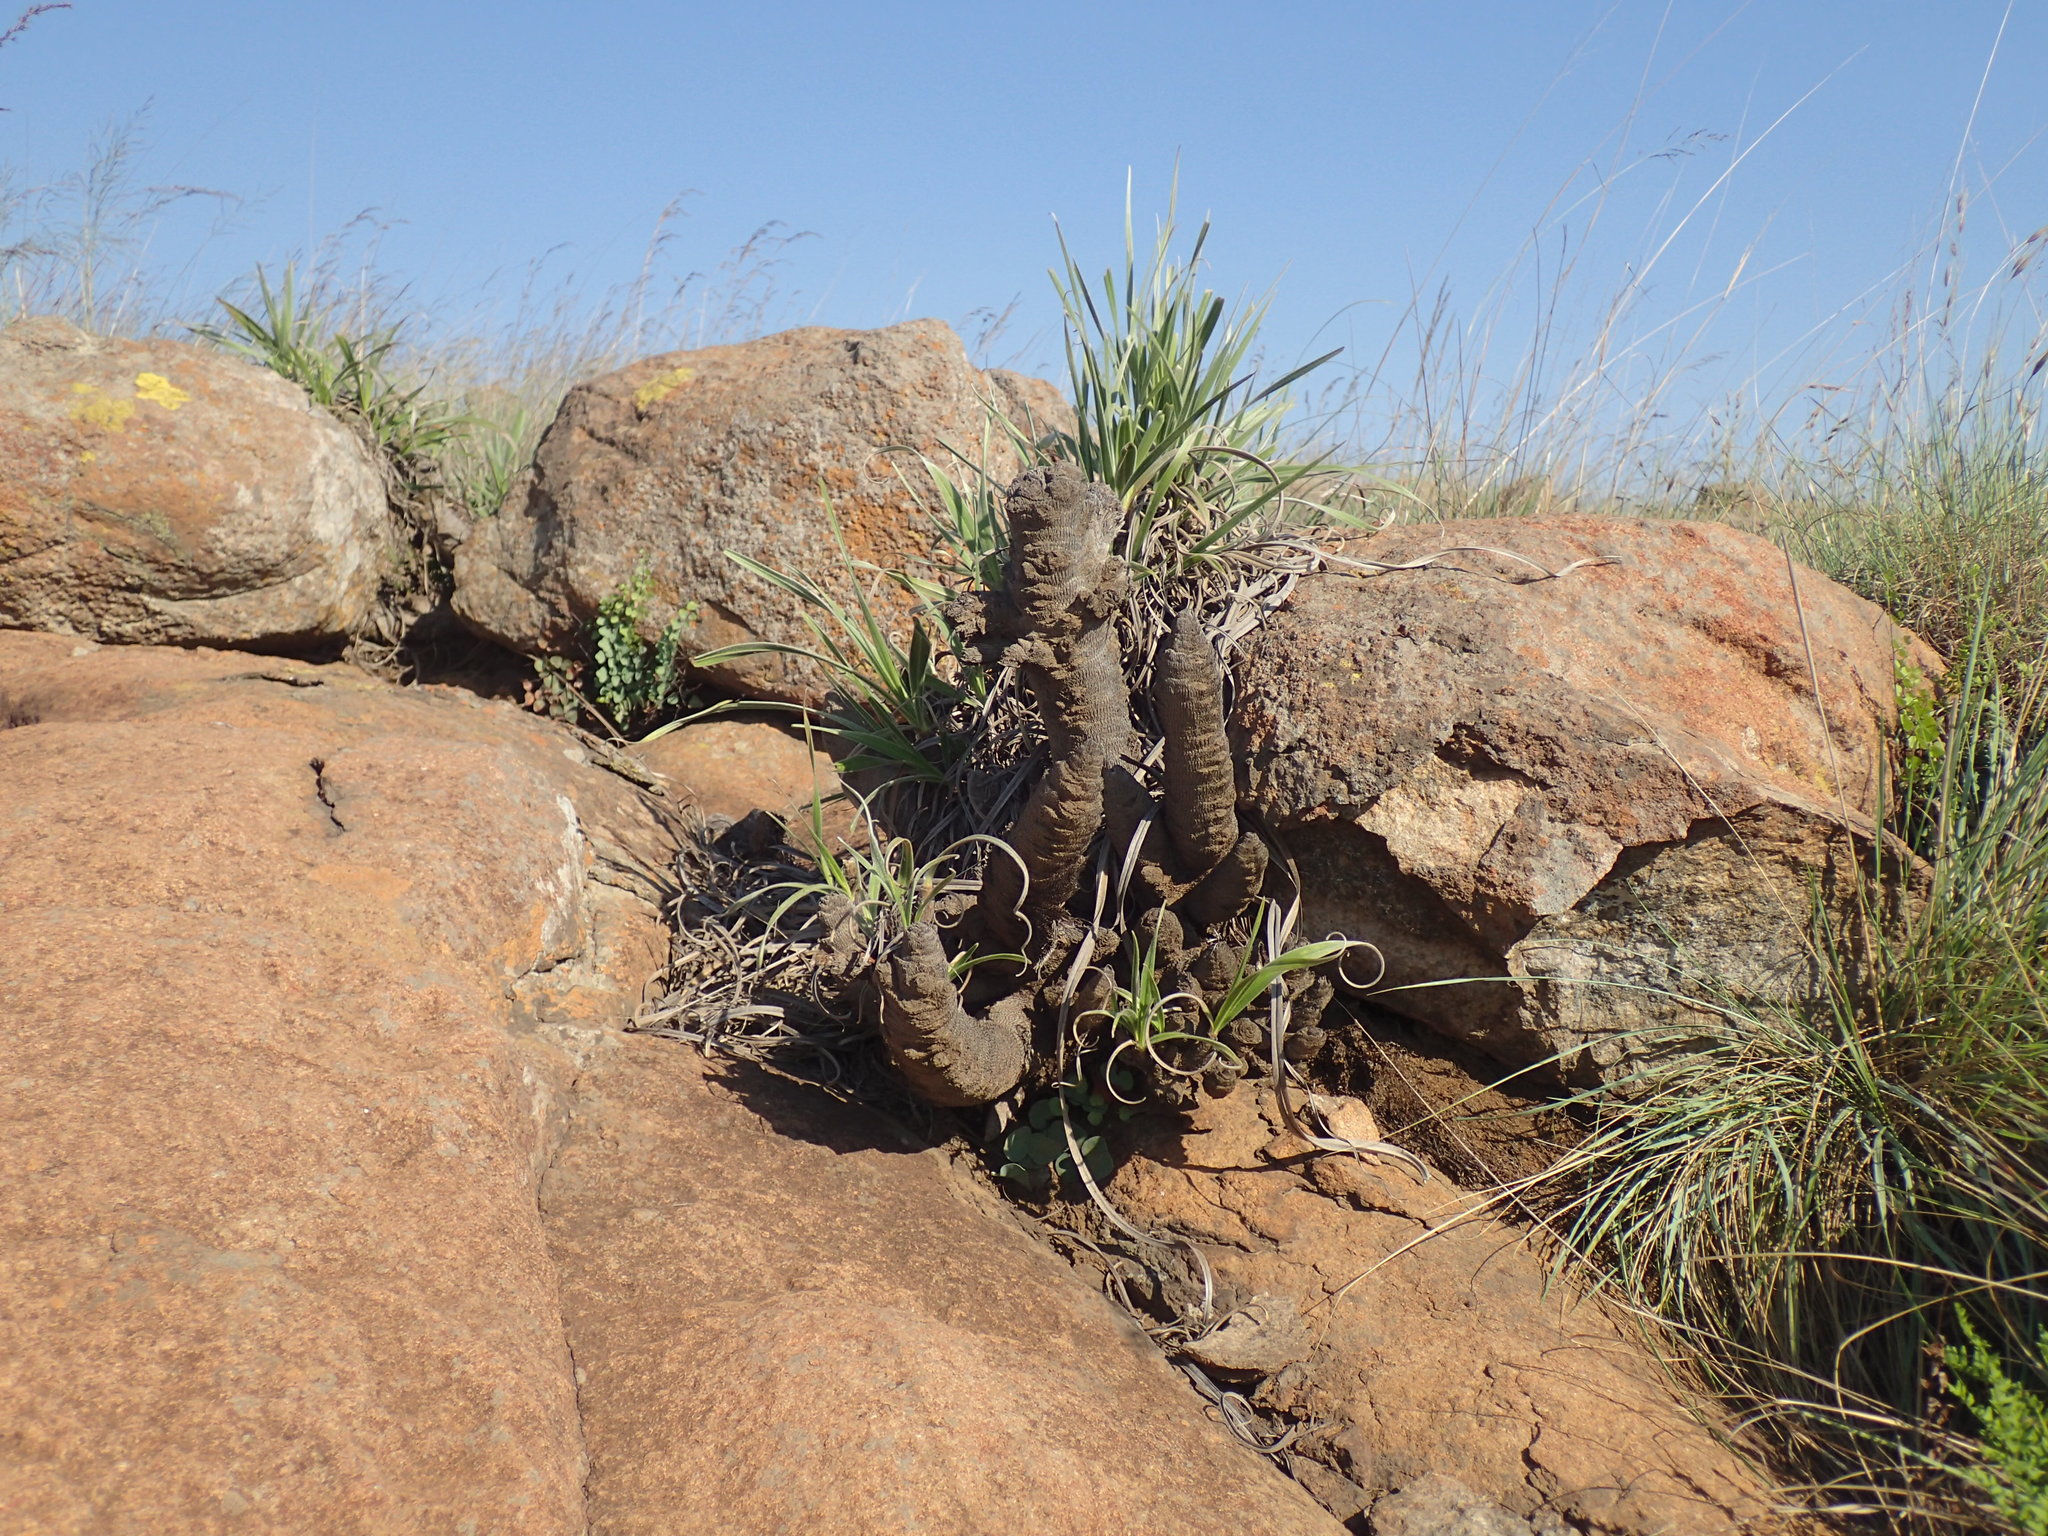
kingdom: Plantae
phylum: Tracheophyta
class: Liliopsida
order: Pandanales
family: Velloziaceae
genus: Xerophyta
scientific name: Xerophyta vallispongolana
